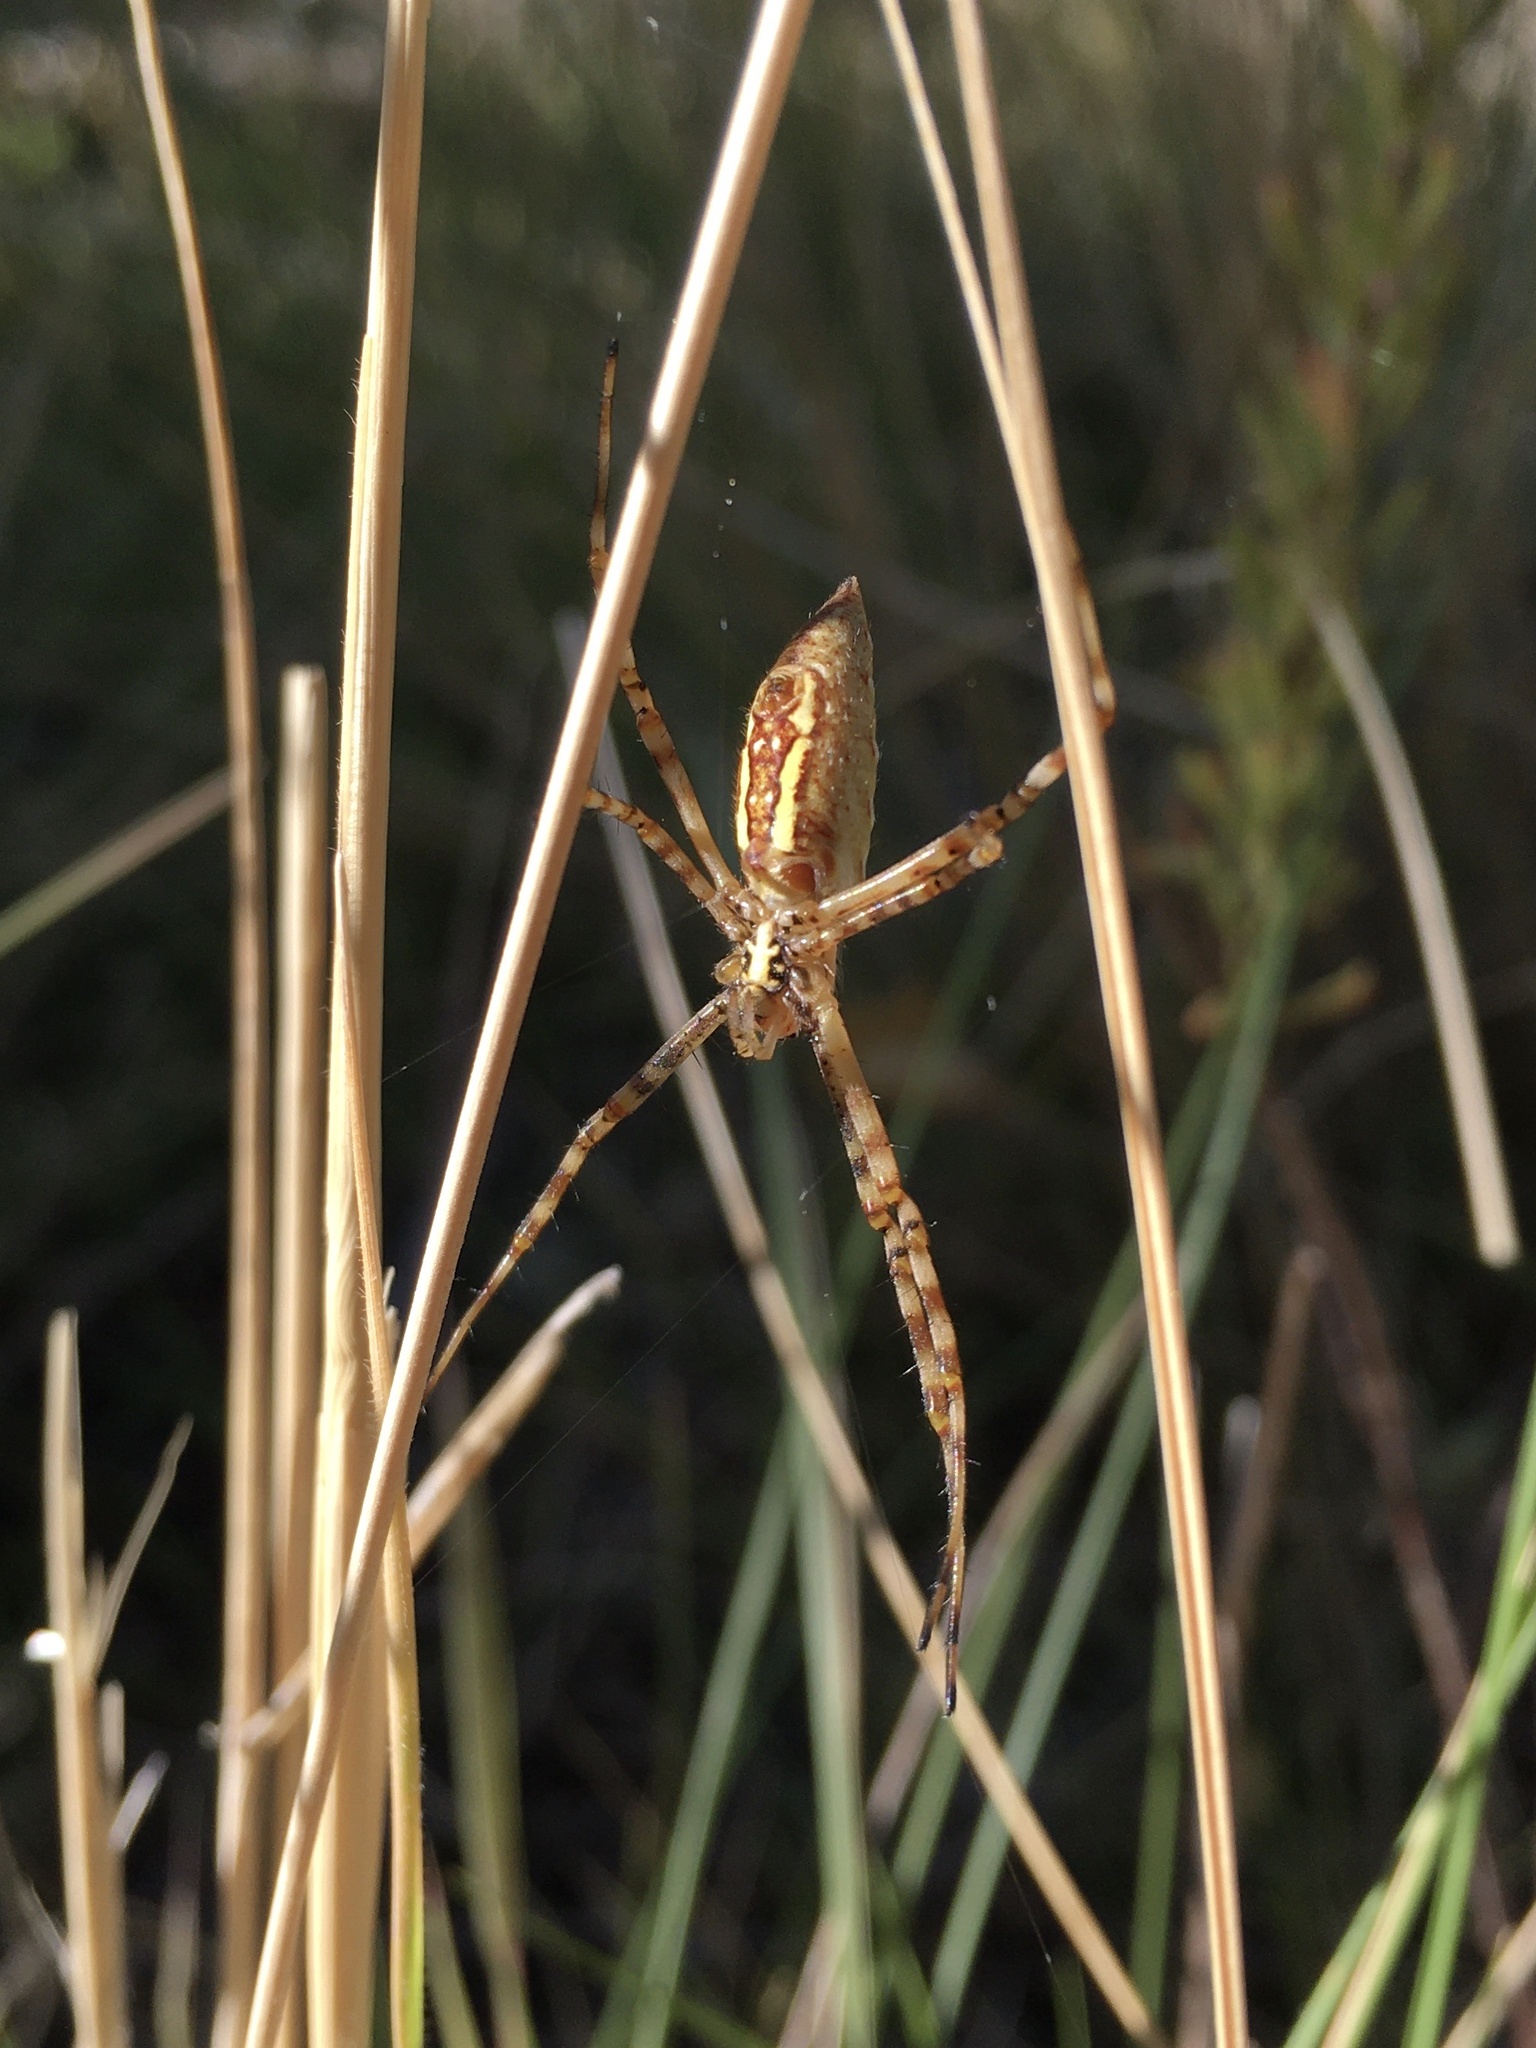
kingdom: Animalia
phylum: Arthropoda
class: Arachnida
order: Araneae
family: Araneidae
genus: Argiope
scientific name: Argiope trifasciata
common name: Banded garden spider
